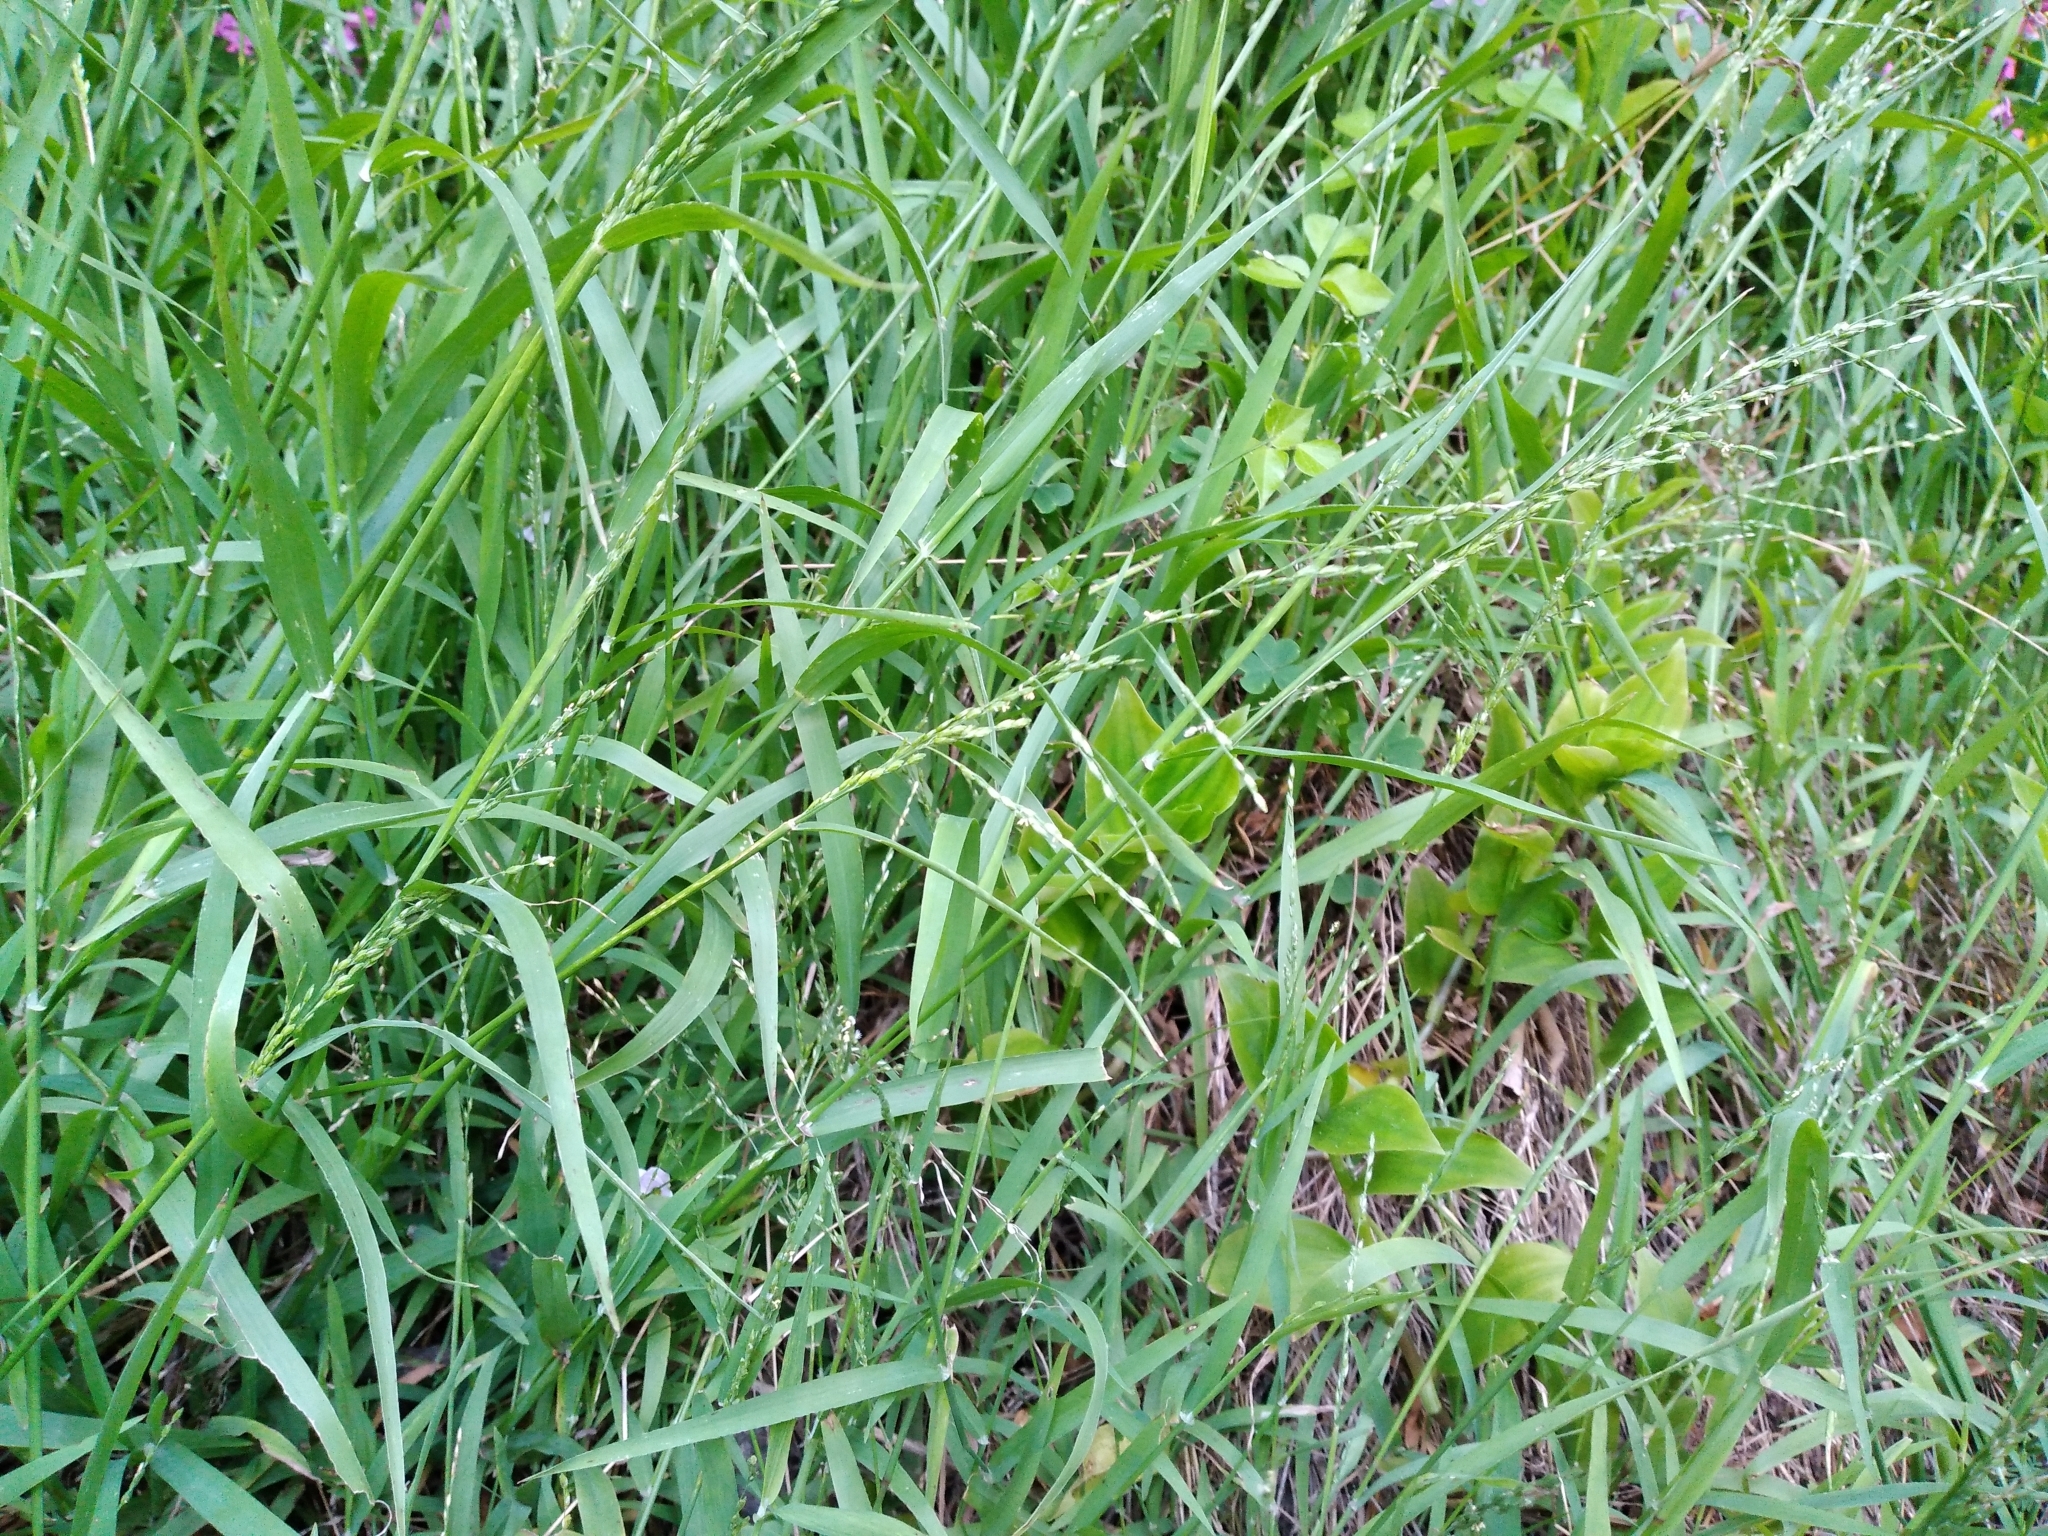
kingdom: Plantae
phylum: Tracheophyta
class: Liliopsida
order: Poales
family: Poaceae
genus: Ehrharta
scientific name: Ehrharta erecta
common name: Panic veldtgrass
